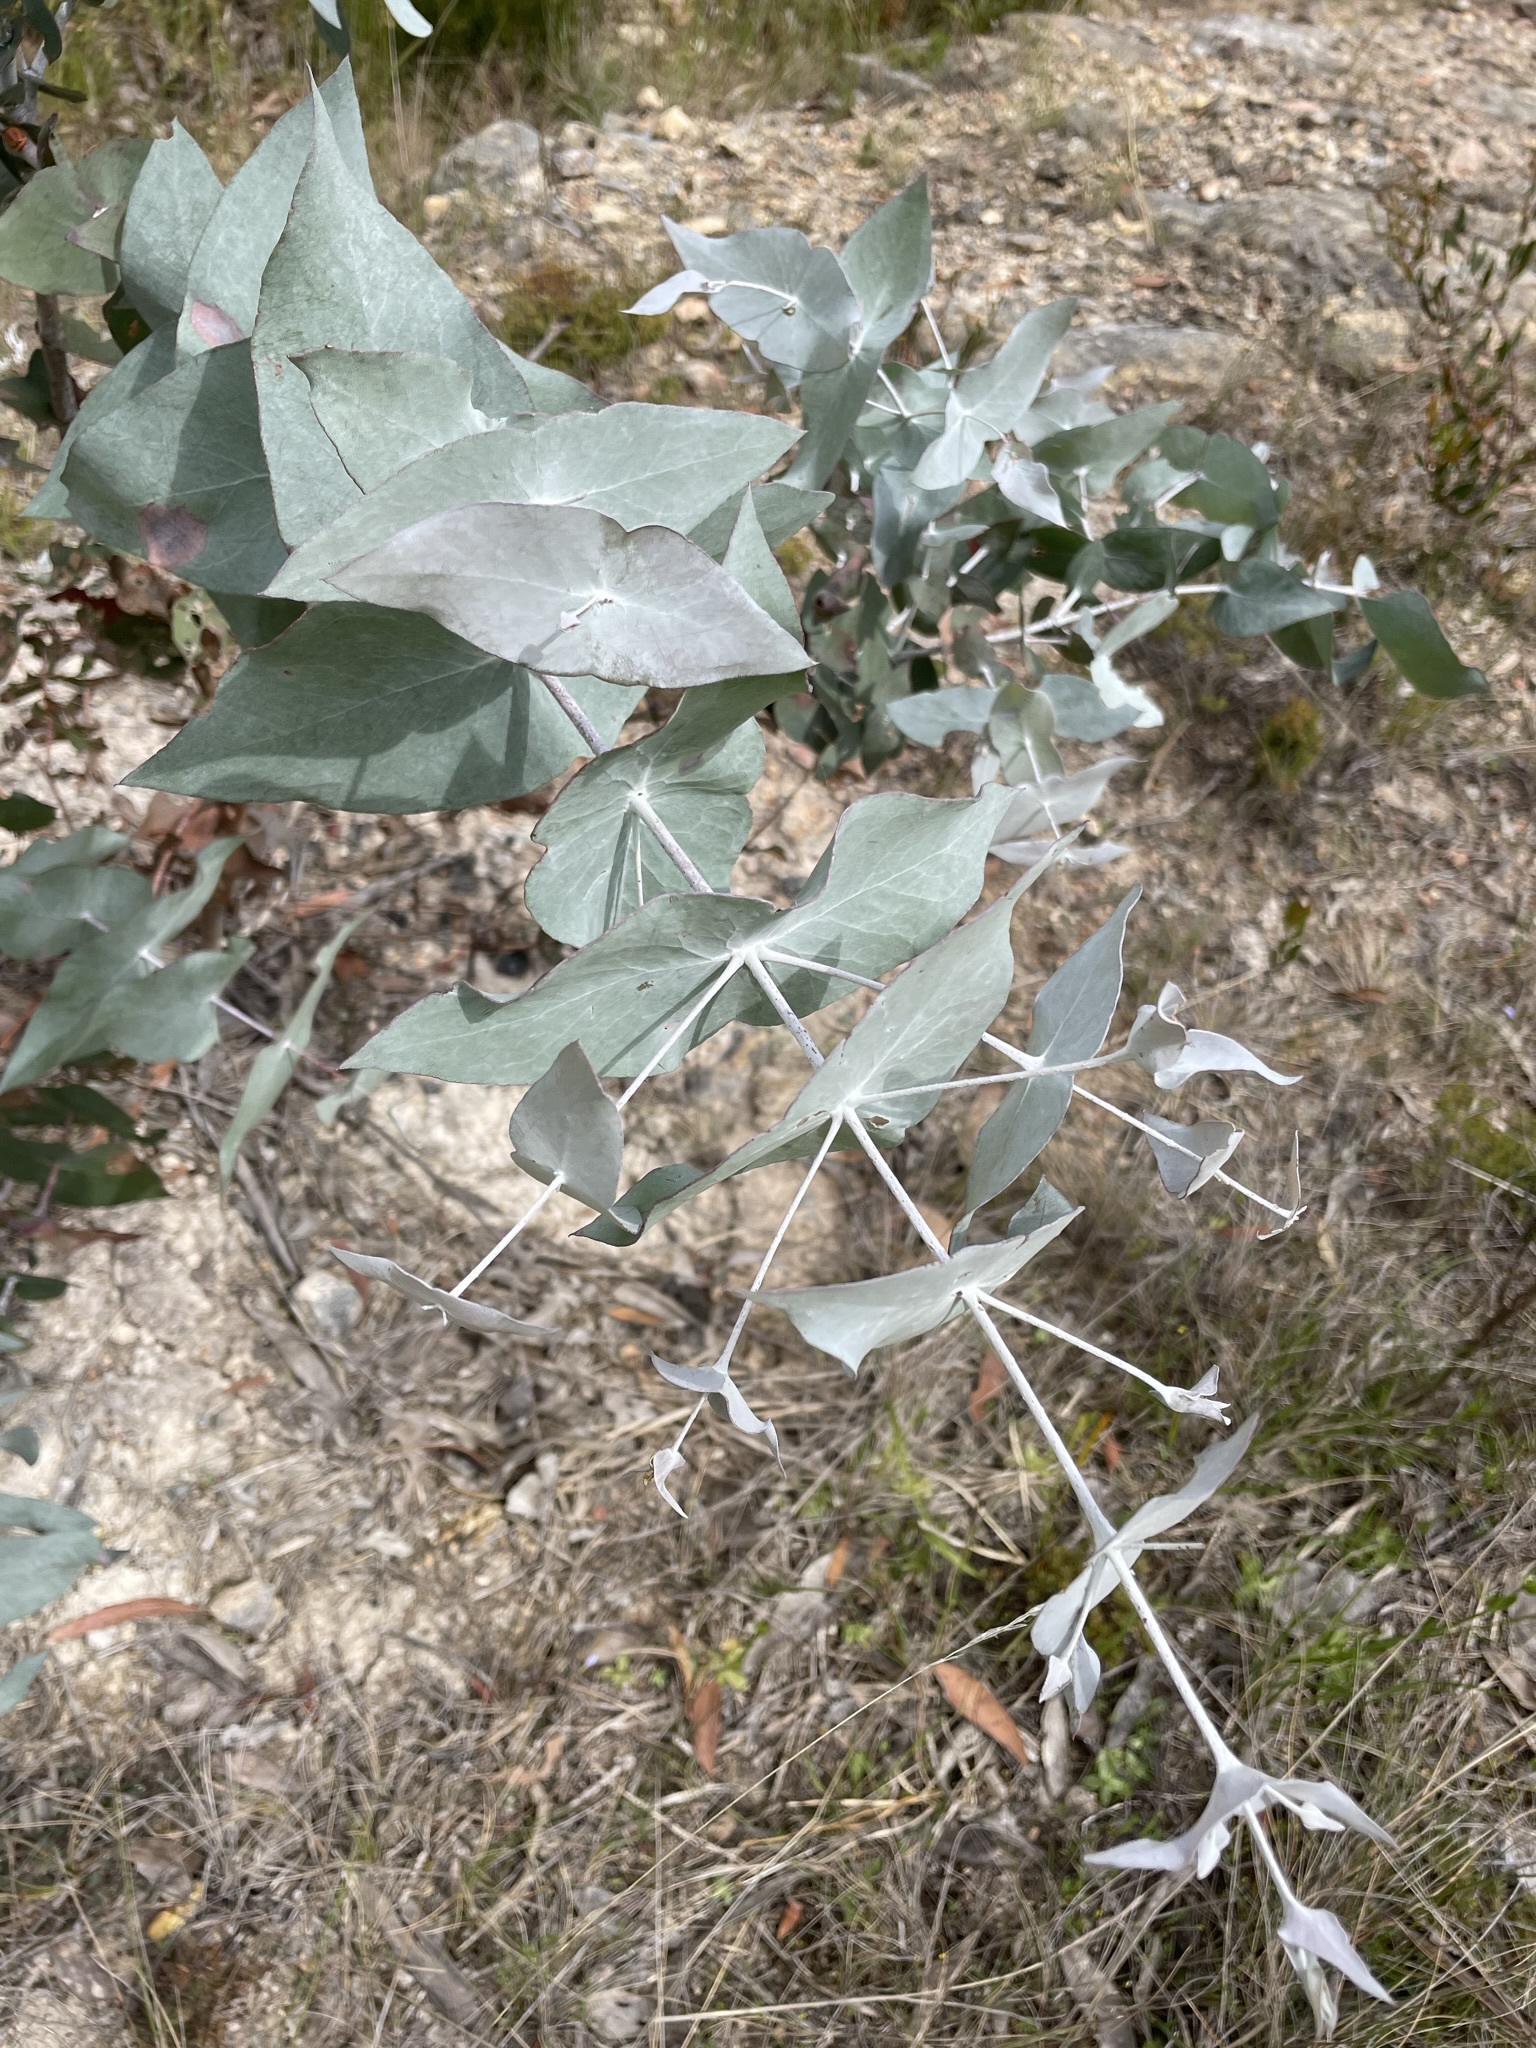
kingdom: Plantae
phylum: Tracheophyta
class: Magnoliopsida
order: Myrtales
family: Myrtaceae
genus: Eucalyptus
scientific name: Eucalyptus tenuiramis
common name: Silver peppermint
